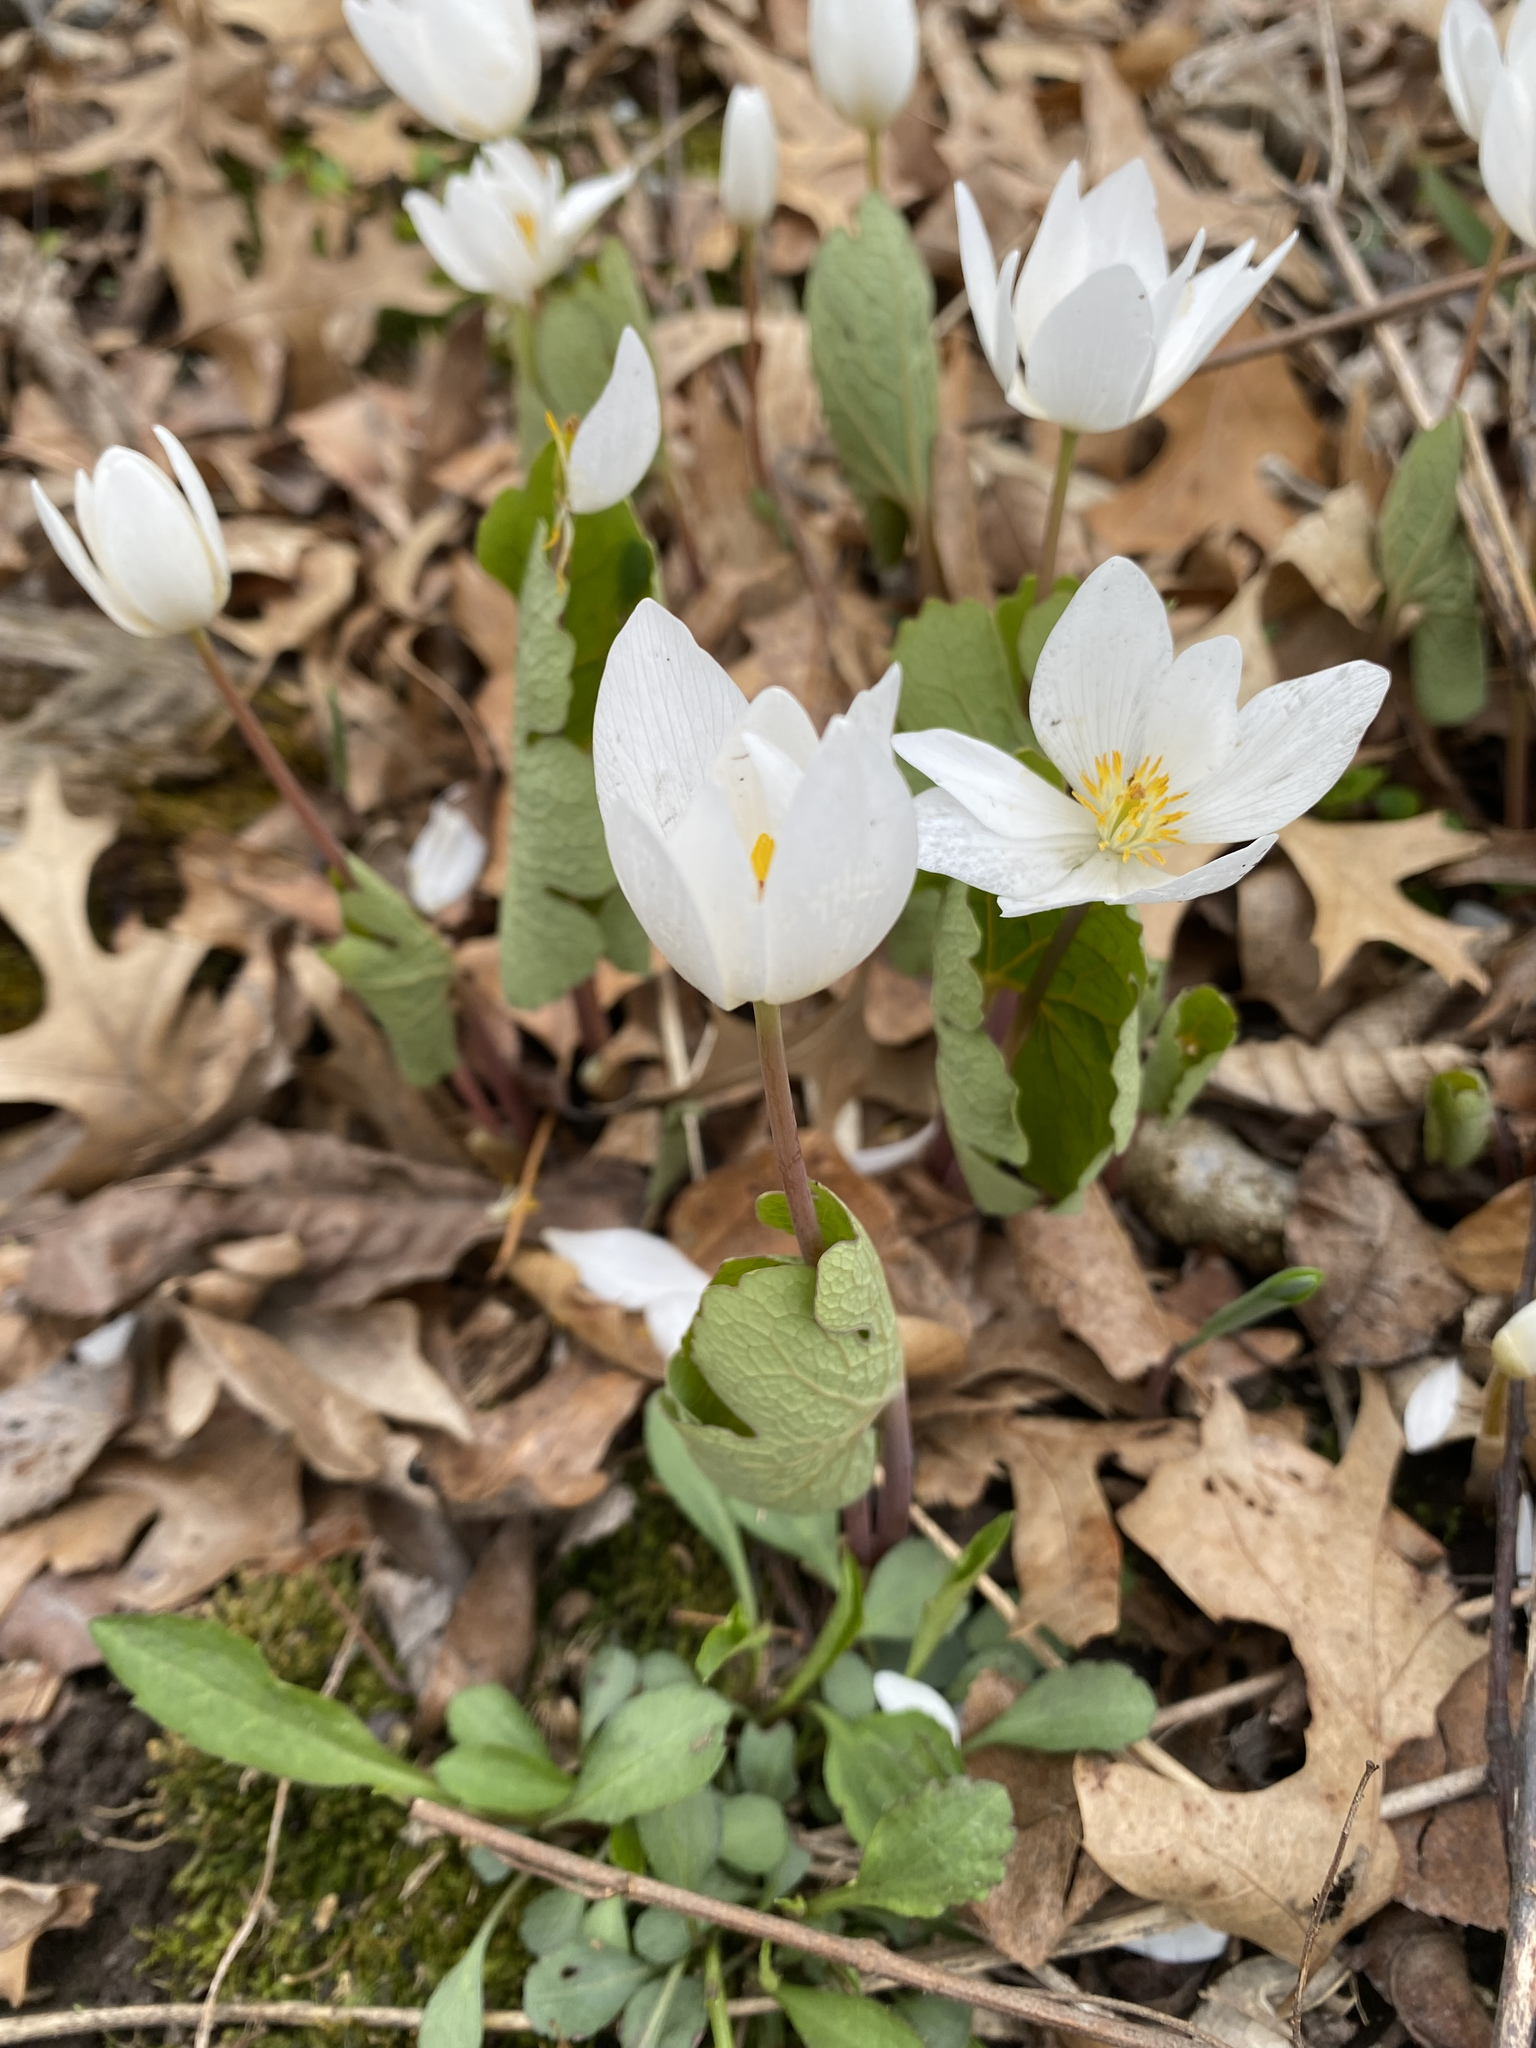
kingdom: Plantae
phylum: Tracheophyta
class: Magnoliopsida
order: Ranunculales
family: Papaveraceae
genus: Sanguinaria
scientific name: Sanguinaria canadensis
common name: Bloodroot
